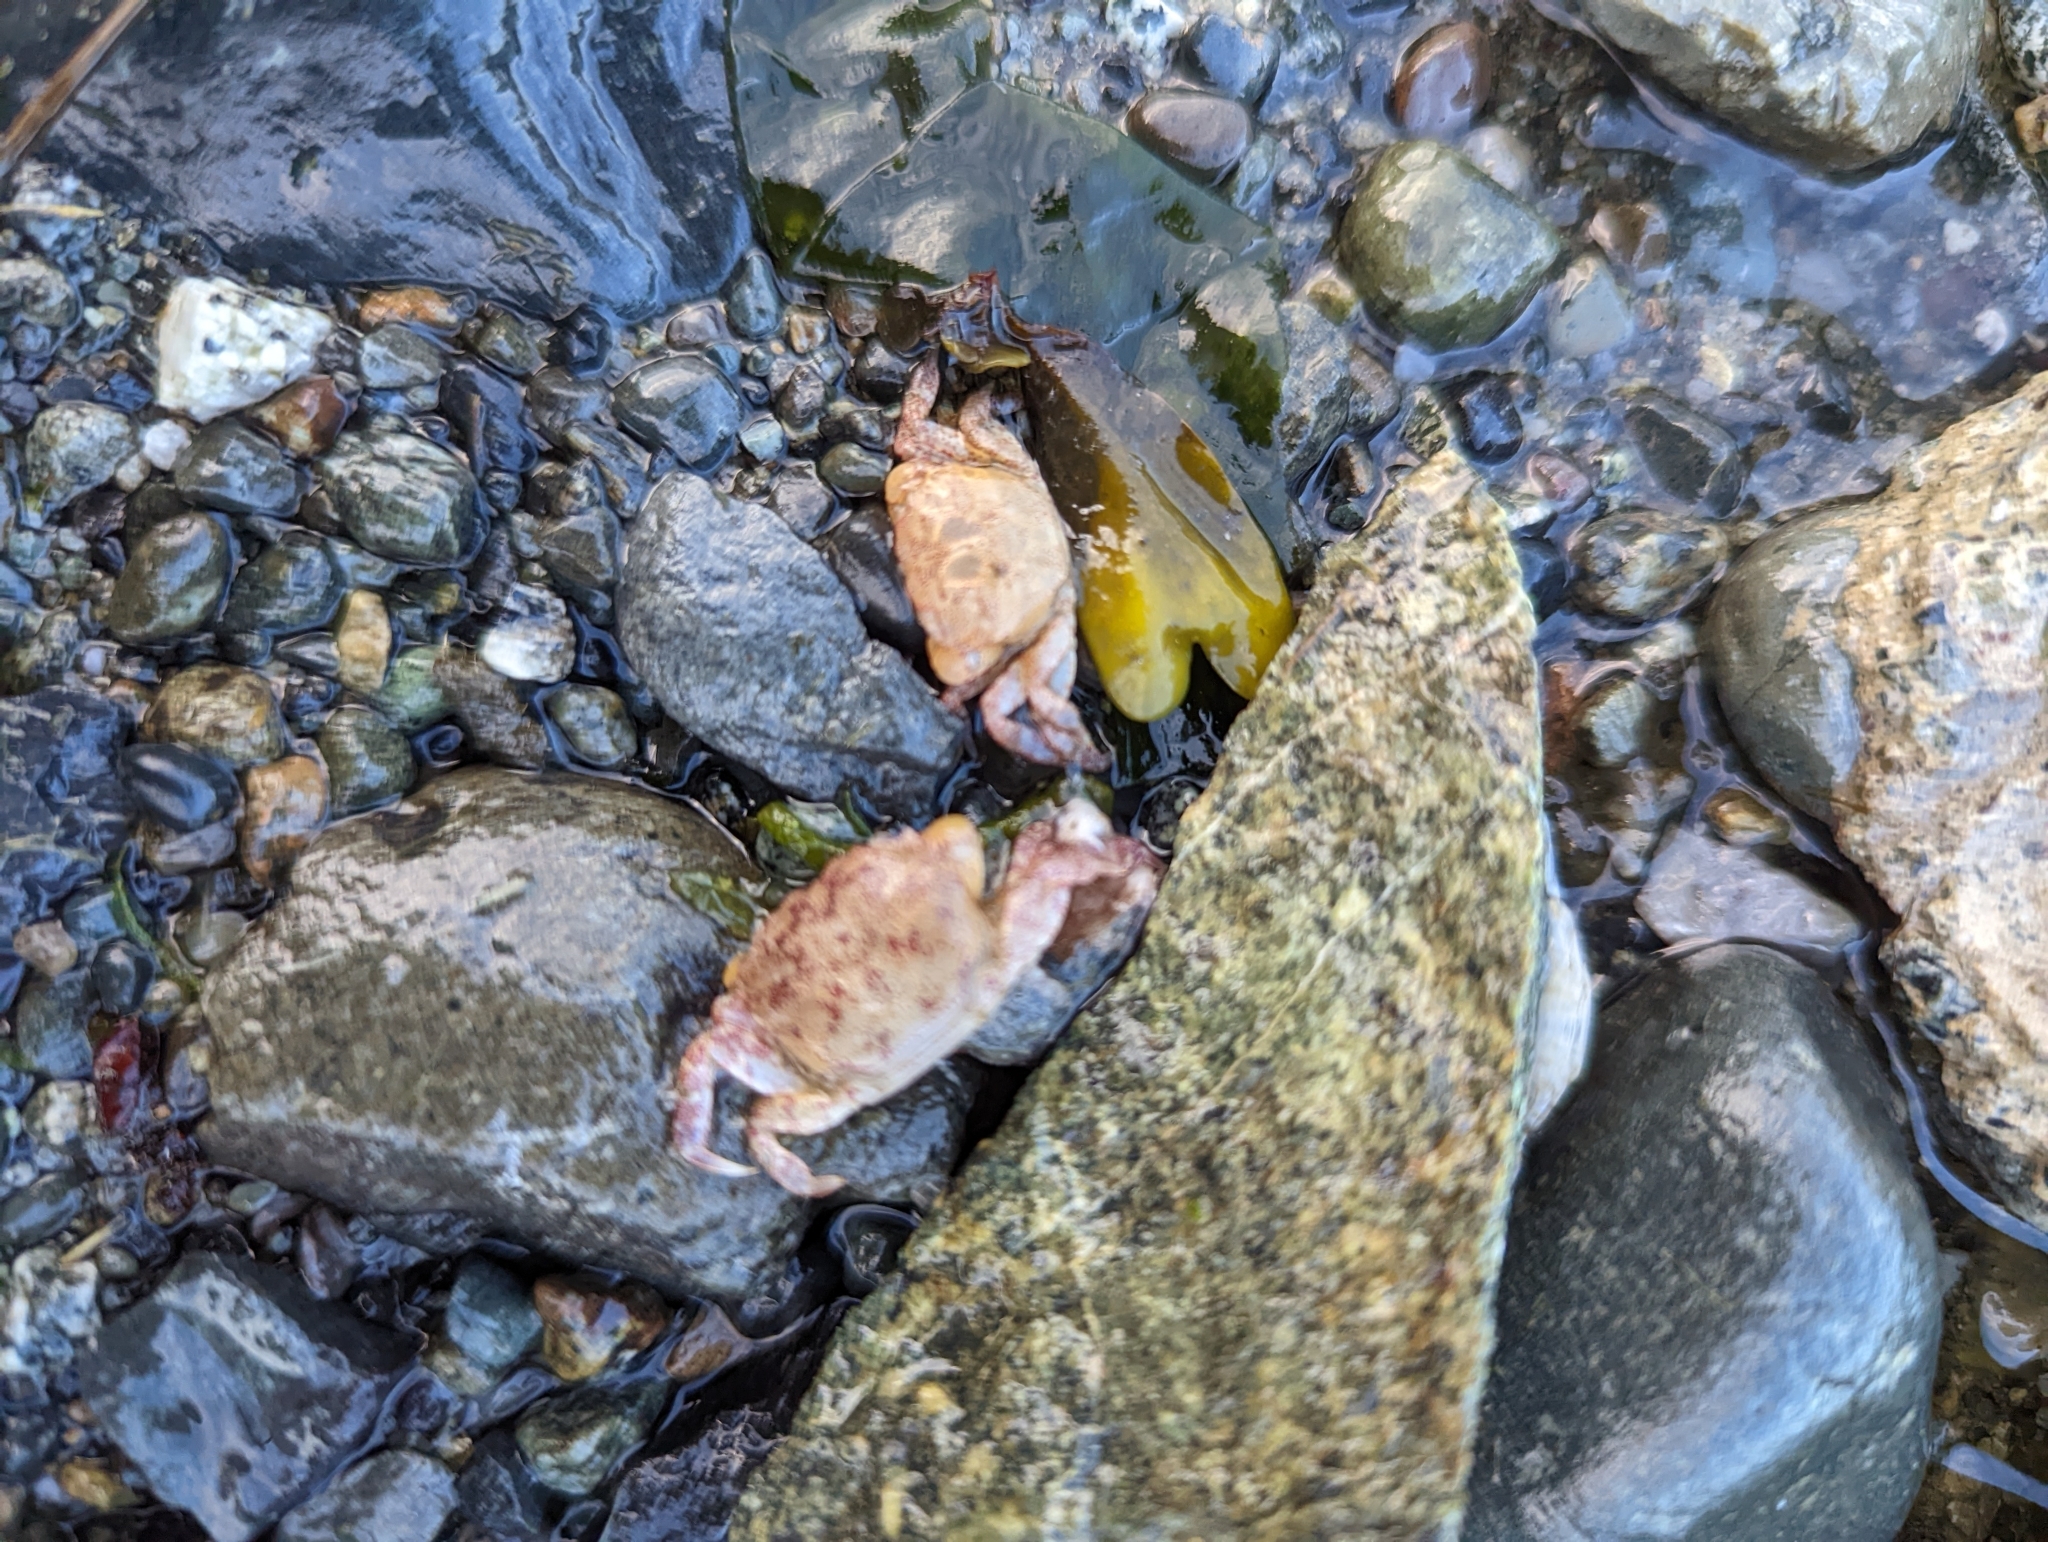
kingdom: Animalia
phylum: Arthropoda
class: Malacostraca
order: Decapoda
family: Varunidae
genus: Hemigrapsus
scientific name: Hemigrapsus oregonensis
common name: Yellow shore crab
